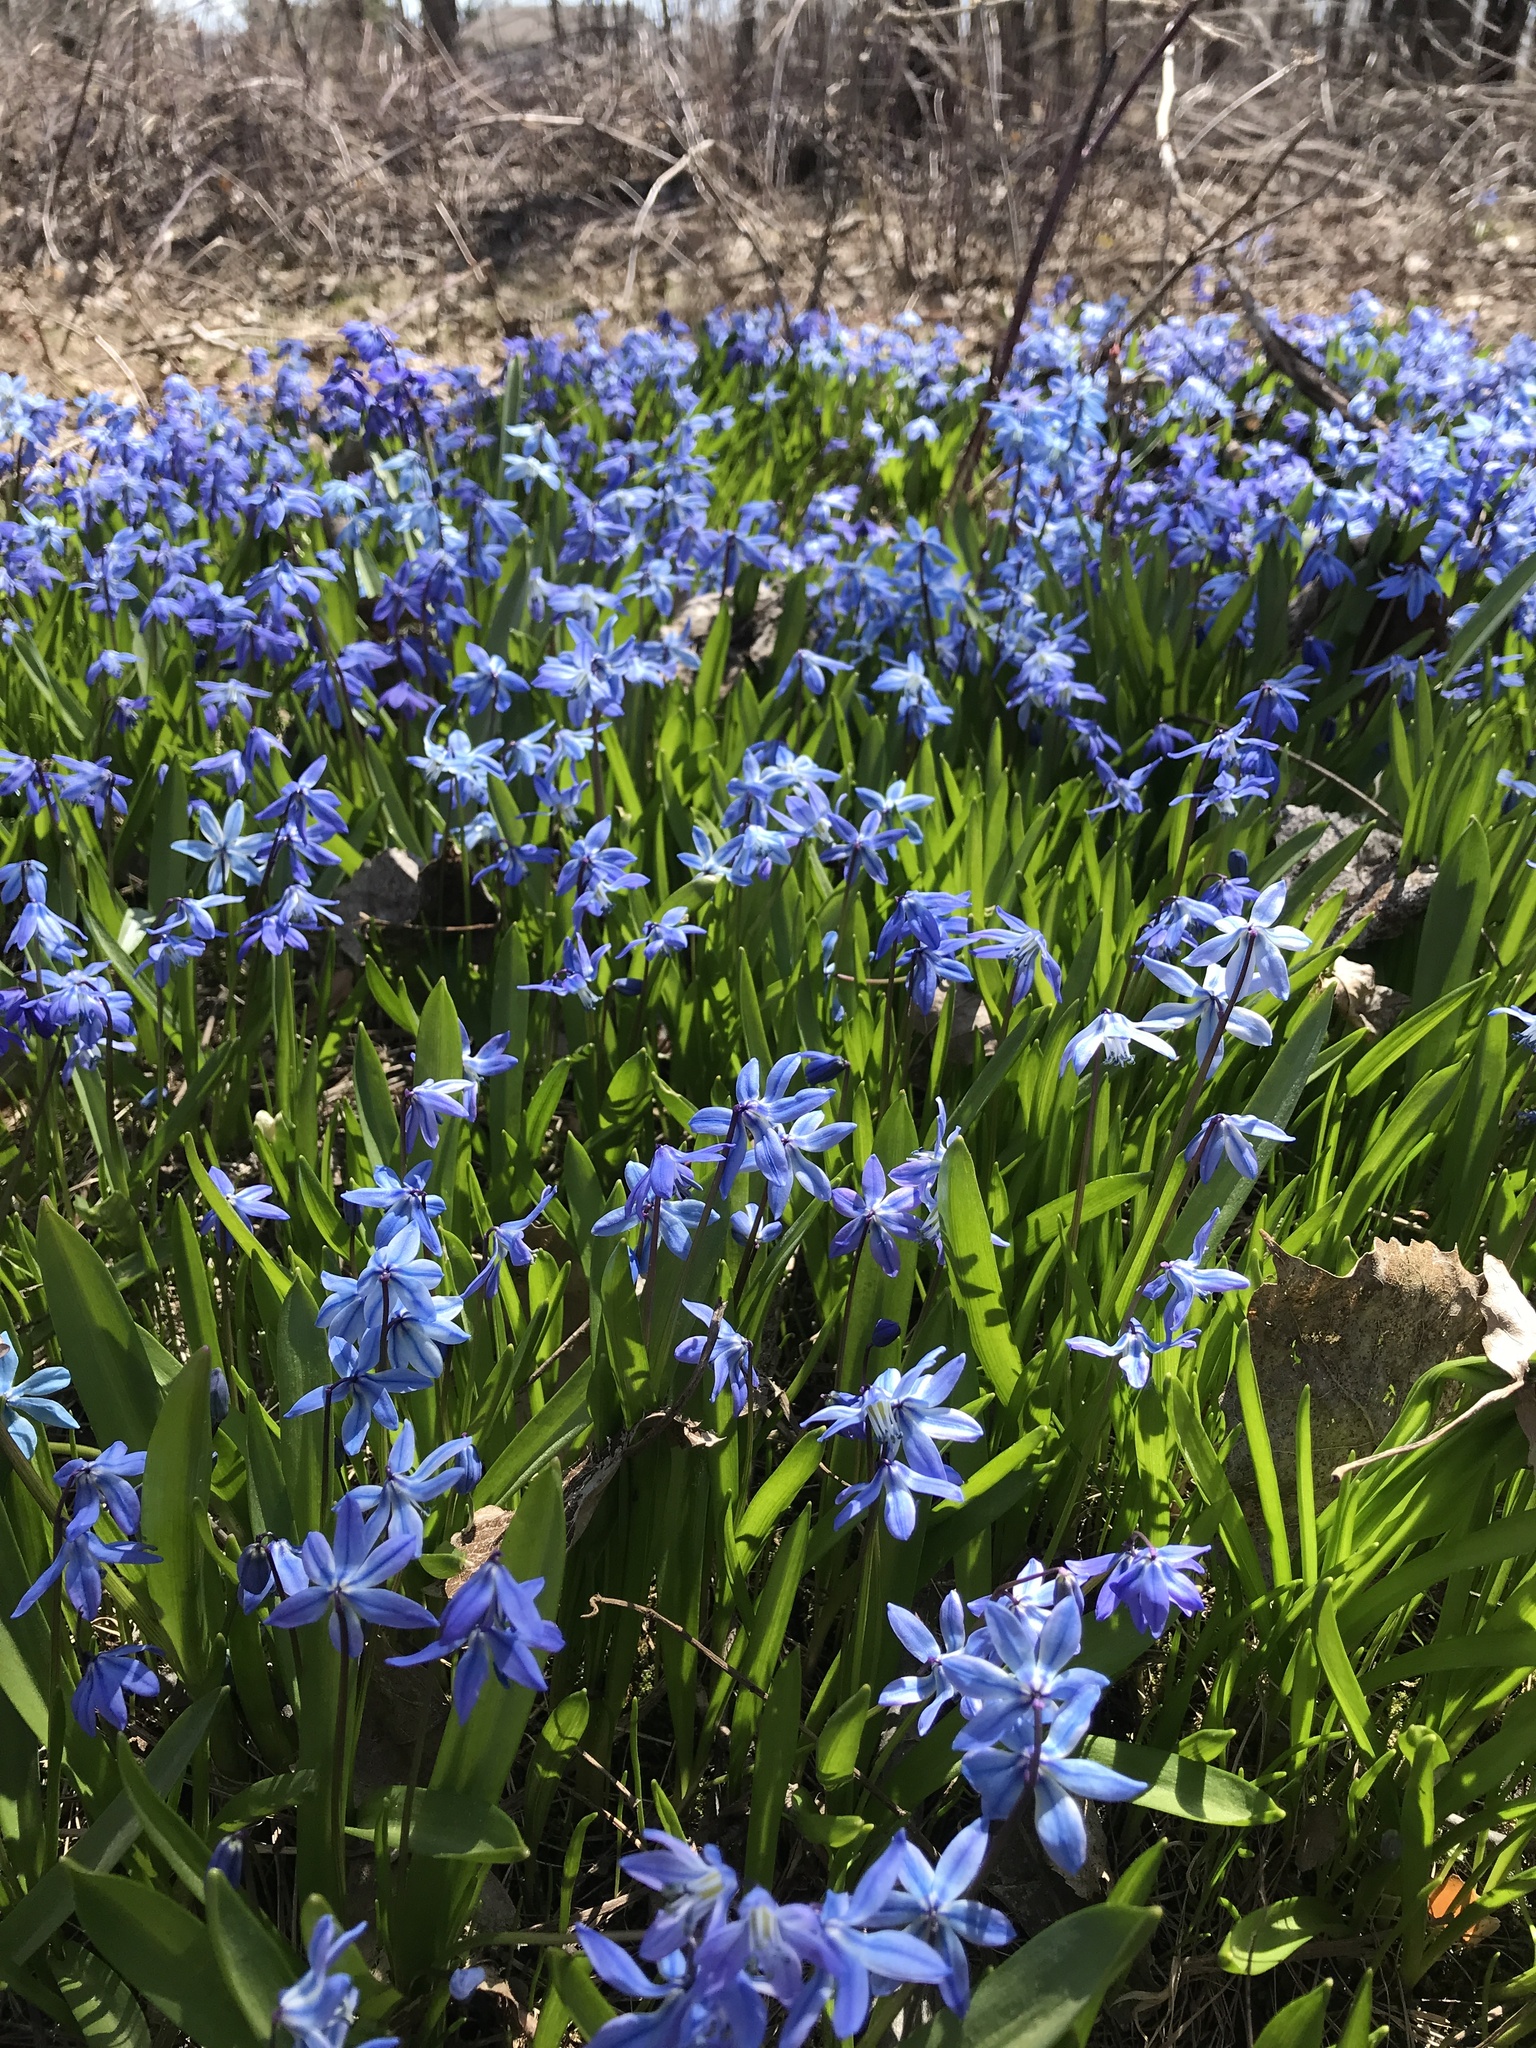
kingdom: Plantae
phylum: Tracheophyta
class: Liliopsida
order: Asparagales
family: Asparagaceae
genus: Scilla
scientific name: Scilla siberica
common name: Siberian squill
